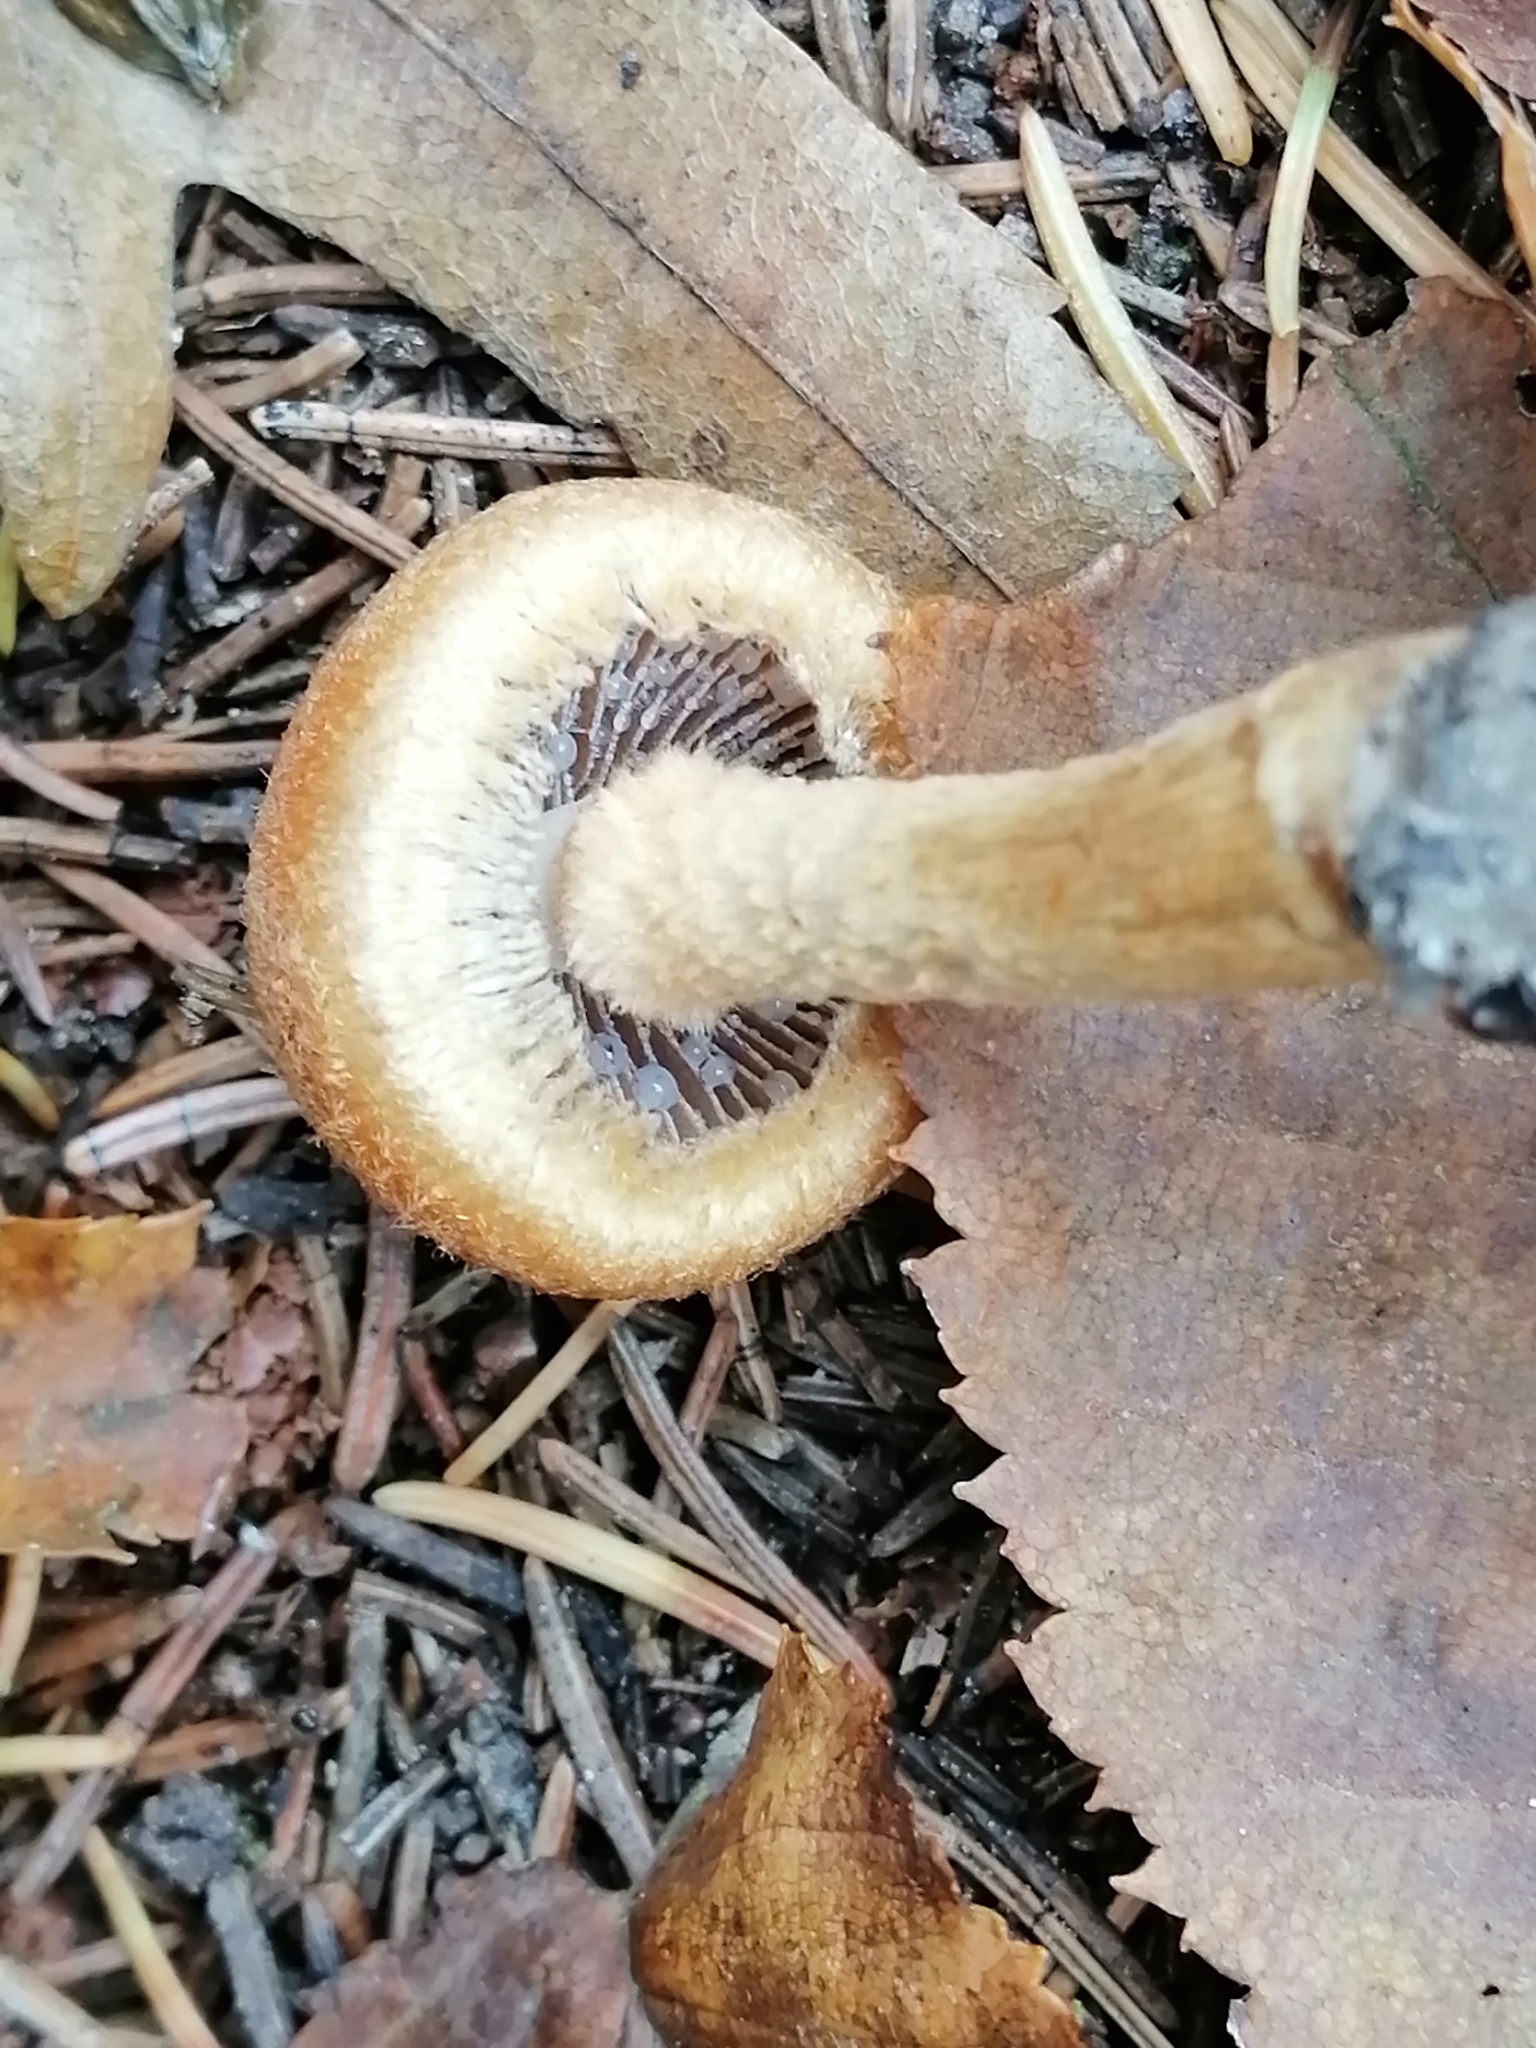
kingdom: Fungi
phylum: Basidiomycota
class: Agaricomycetes
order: Agaricales
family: Psathyrellaceae
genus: Lacrymaria
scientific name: Lacrymaria lacrymabunda
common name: Weeping widow
